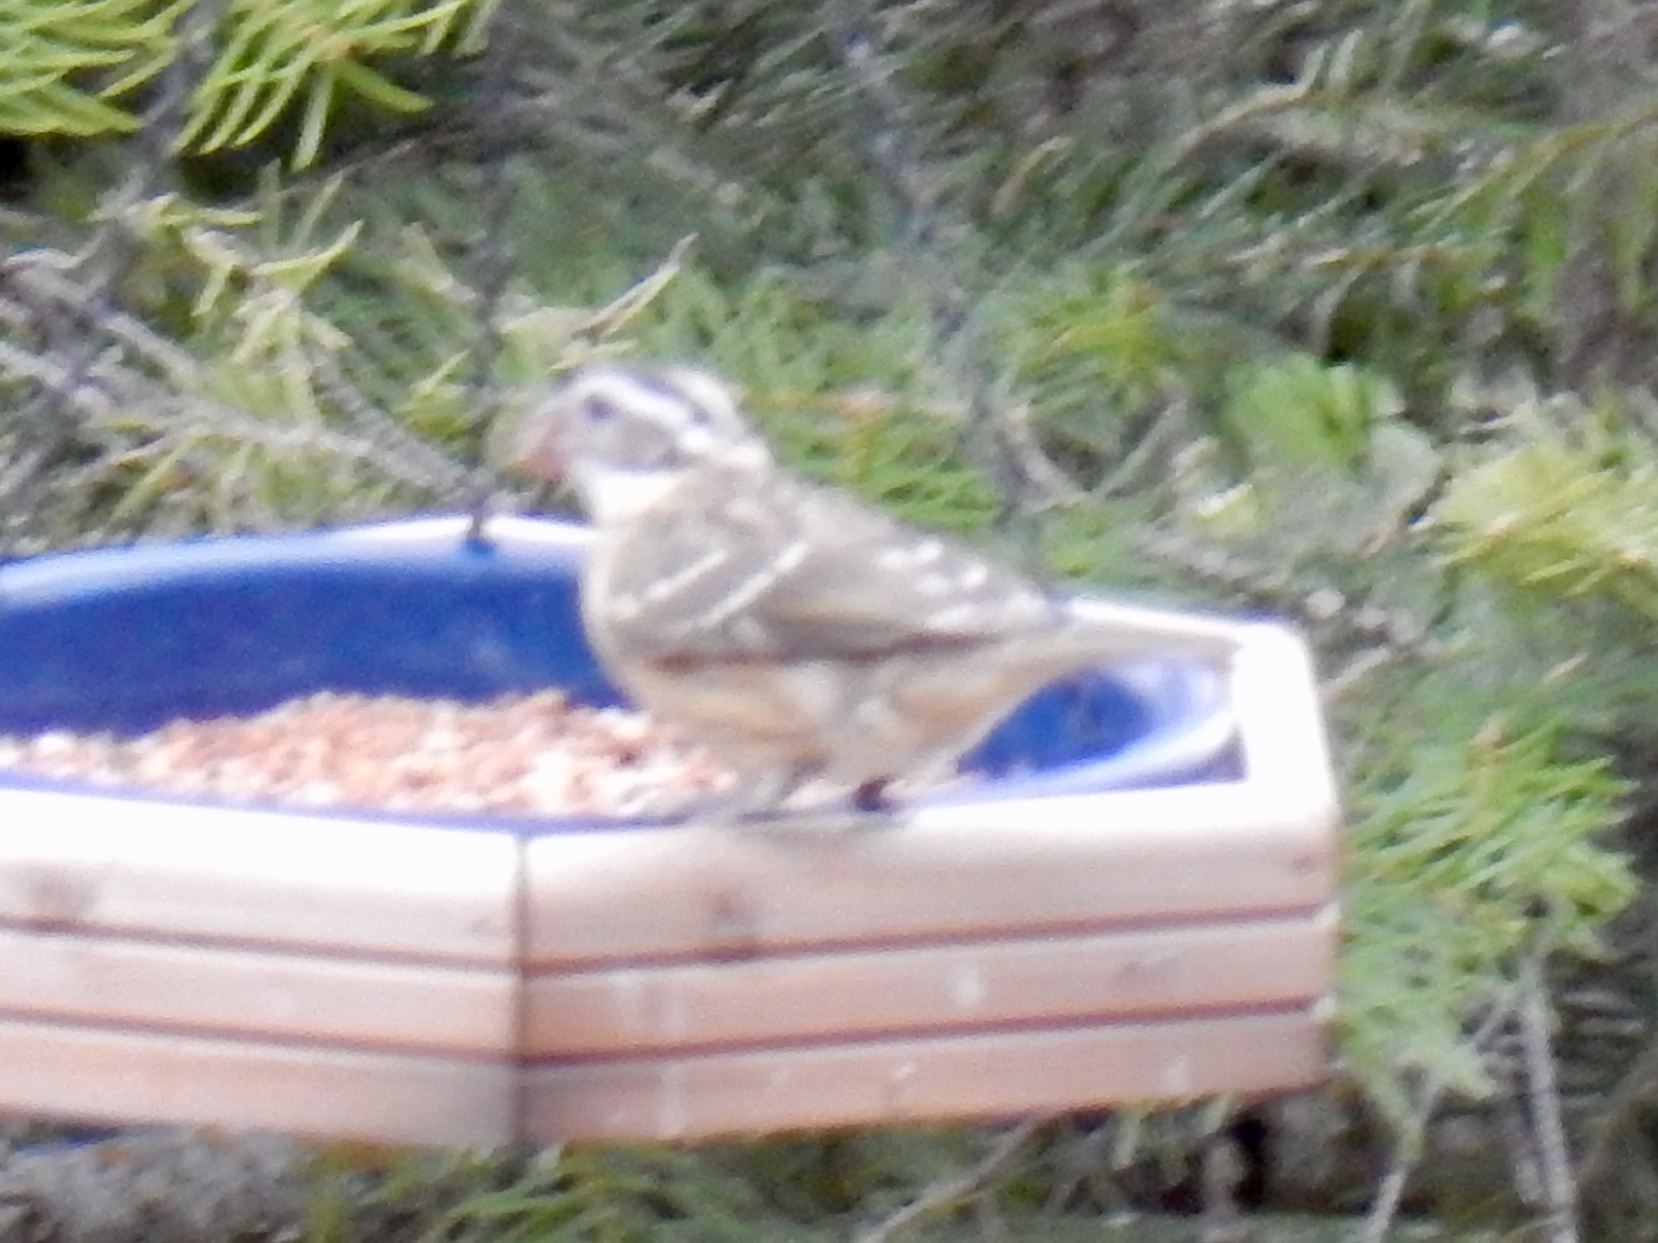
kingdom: Animalia
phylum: Chordata
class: Aves
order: Passeriformes
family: Cardinalidae
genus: Pheucticus
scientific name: Pheucticus melanocephalus
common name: Black-headed grosbeak
